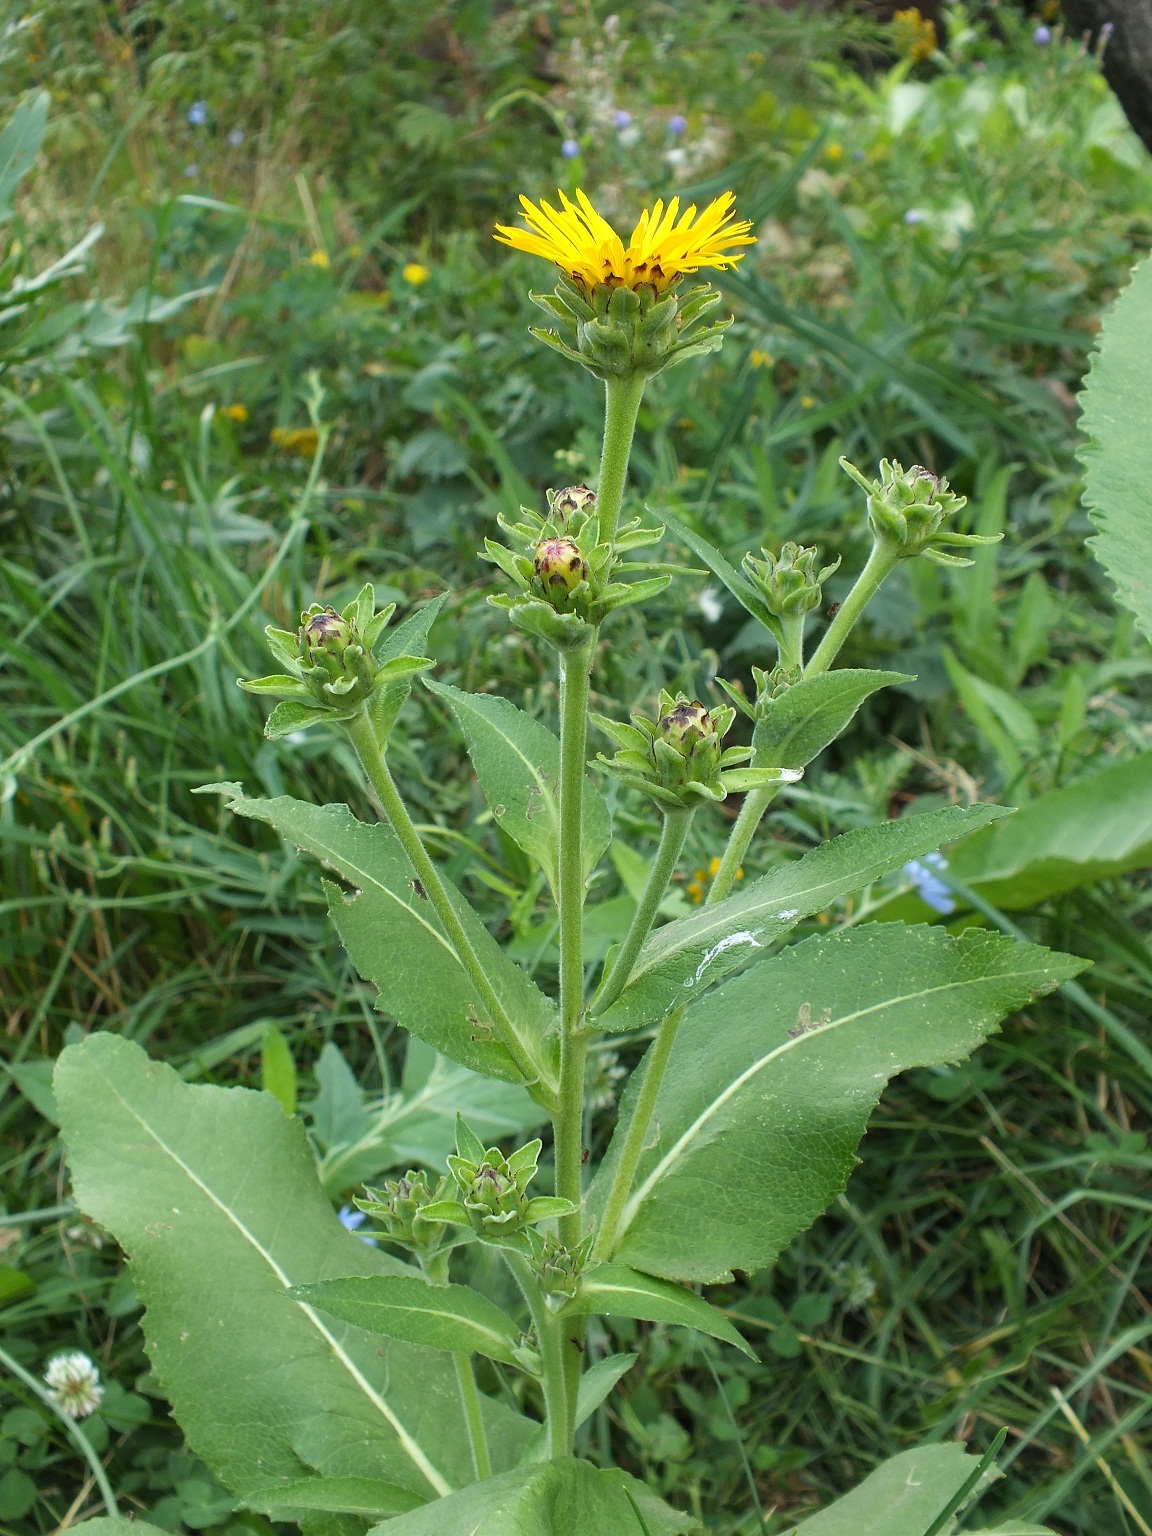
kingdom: Plantae
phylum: Tracheophyta
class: Magnoliopsida
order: Asterales
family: Asteraceae
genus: Inula
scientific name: Inula helenium
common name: Elecampane
